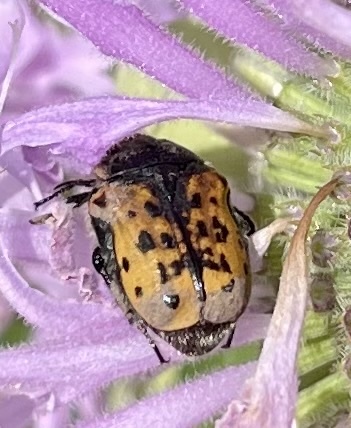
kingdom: Animalia
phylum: Arthropoda
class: Insecta
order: Coleoptera
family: Scarabaeidae
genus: Euphoria
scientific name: Euphoria kernii
